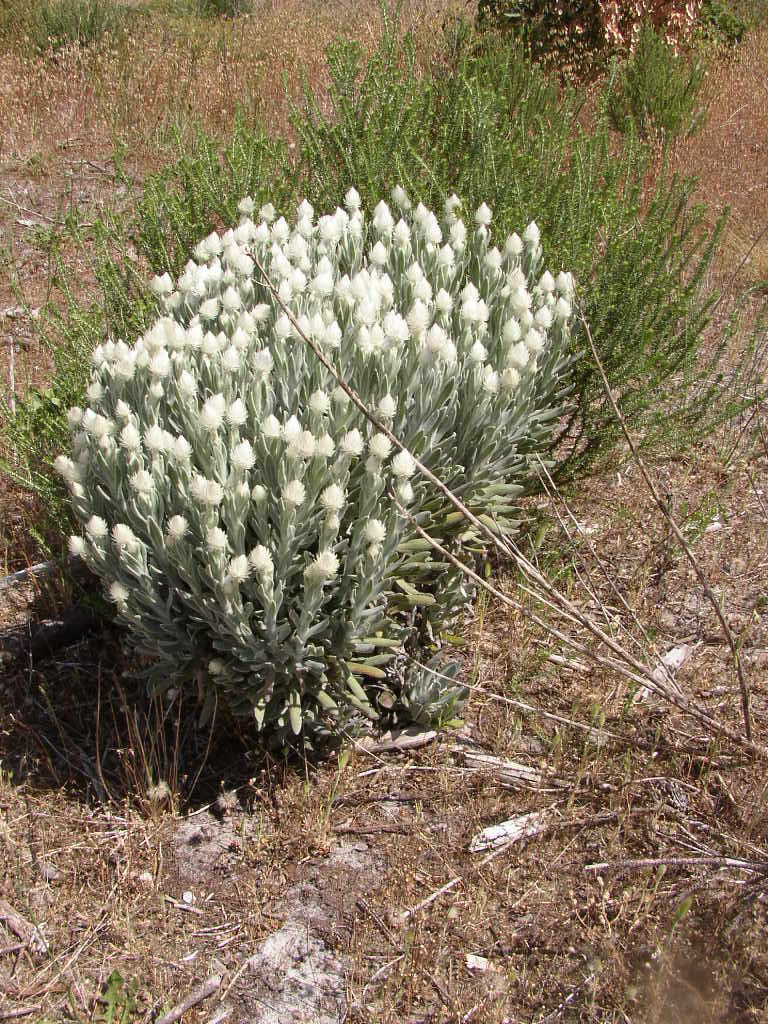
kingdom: Plantae
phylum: Tracheophyta
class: Magnoliopsida
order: Asterales
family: Asteraceae
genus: Syncarpha
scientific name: Syncarpha vestita
